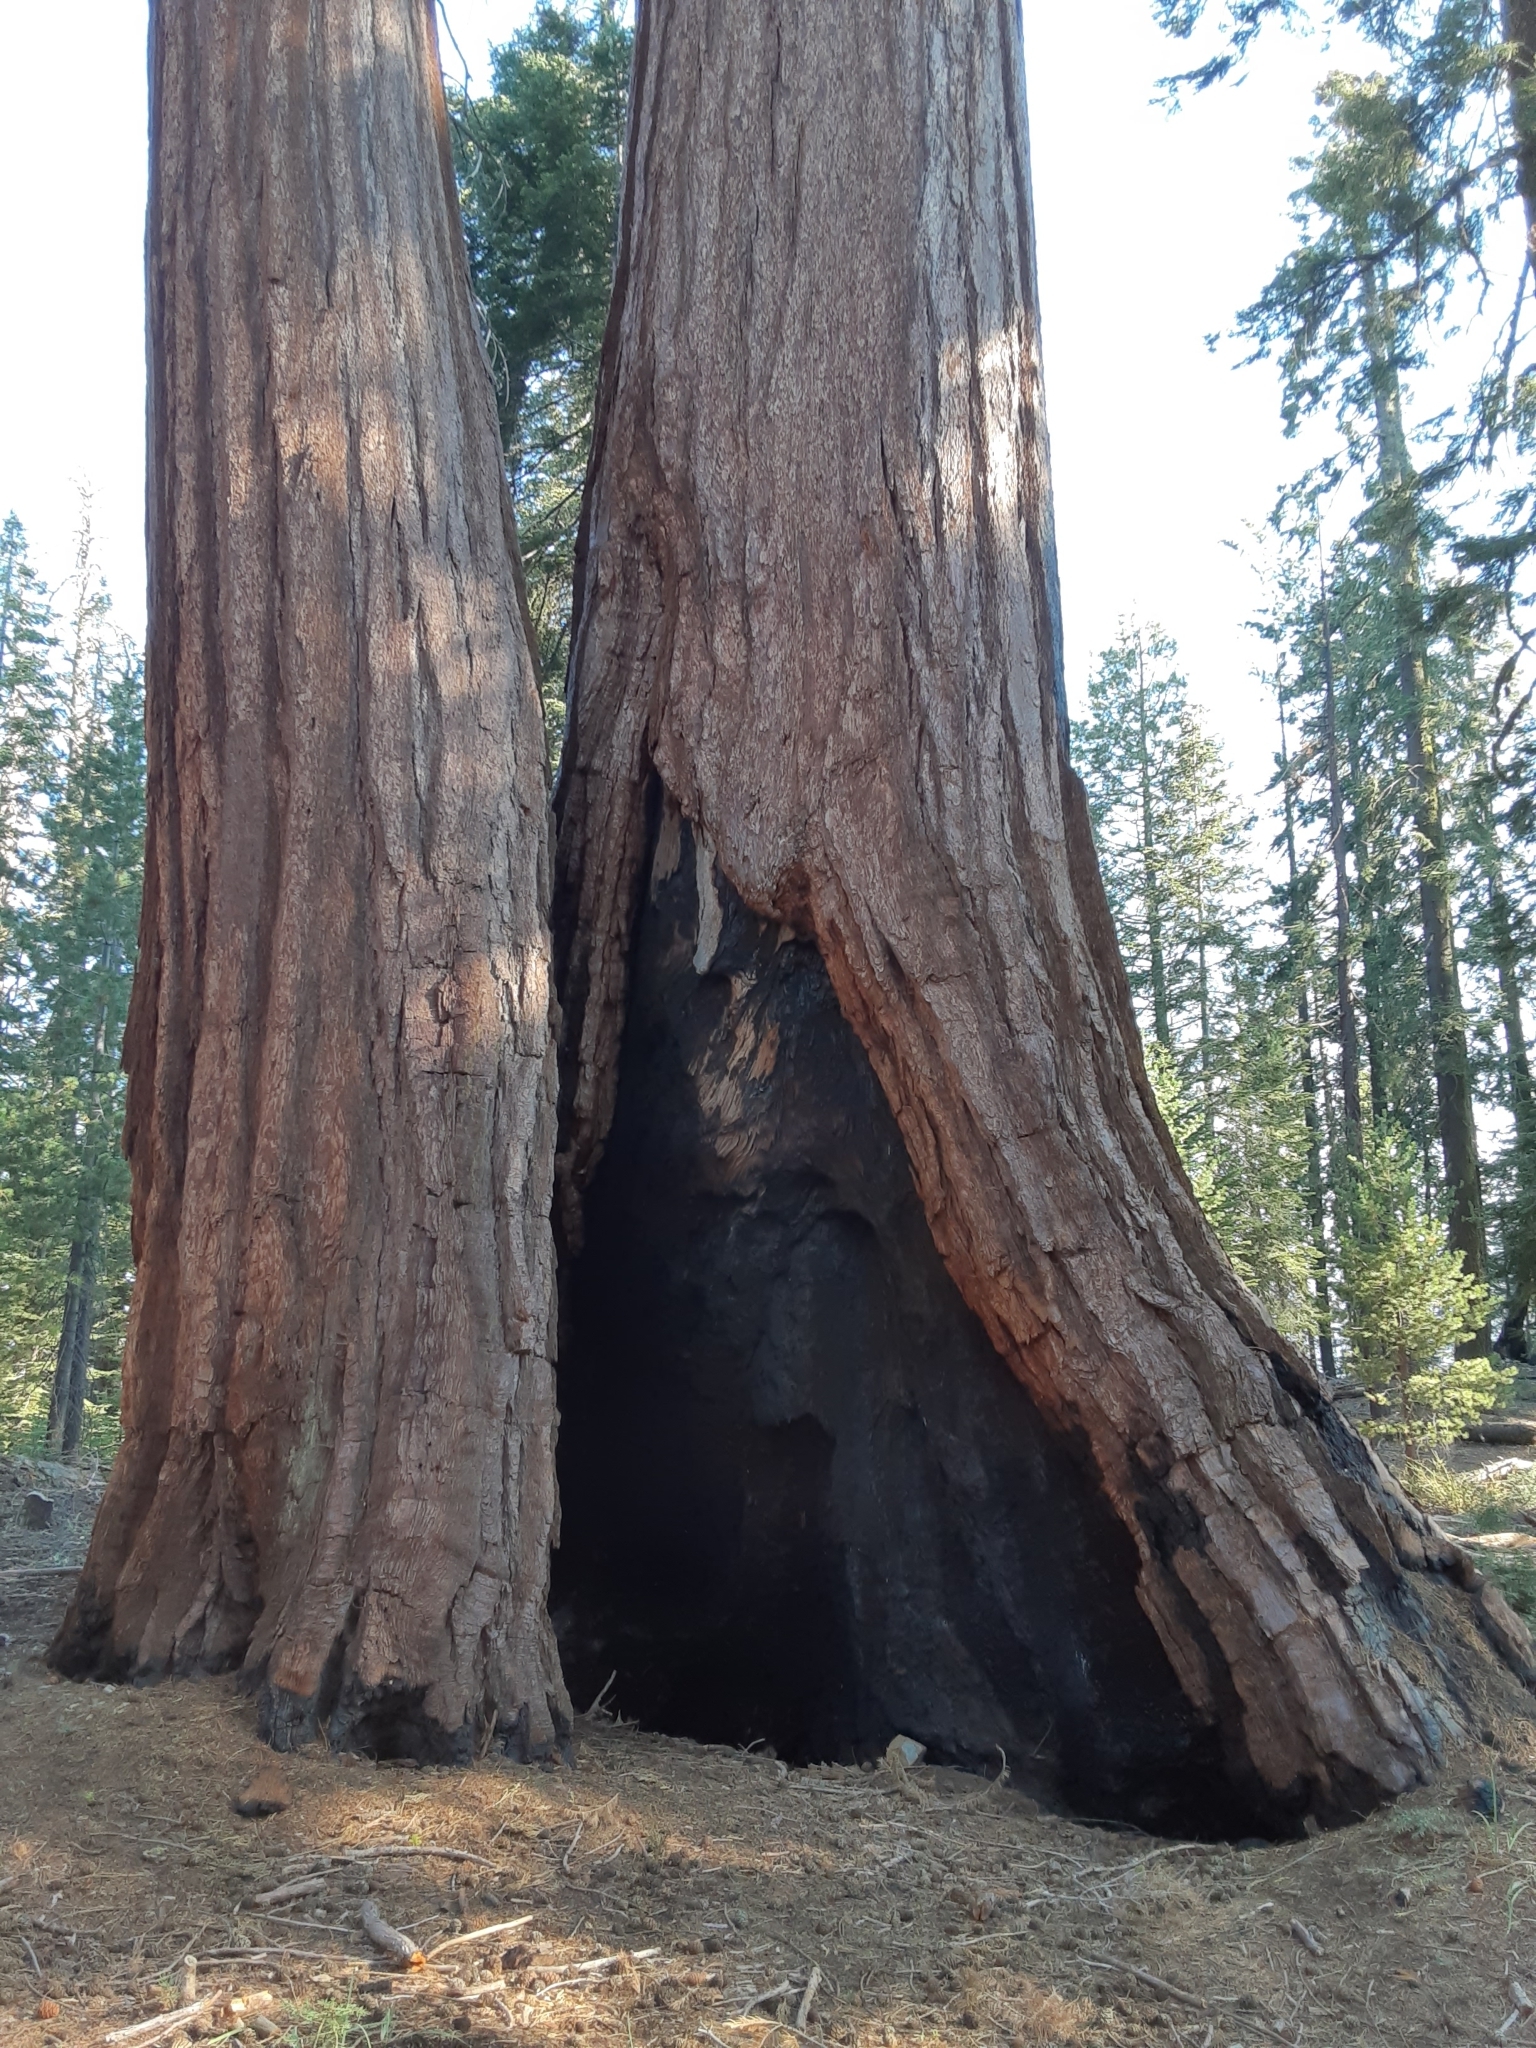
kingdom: Plantae
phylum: Tracheophyta
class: Pinopsida
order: Pinales
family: Cupressaceae
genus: Sequoiadendron
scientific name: Sequoiadendron giganteum
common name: Wellingtonia
